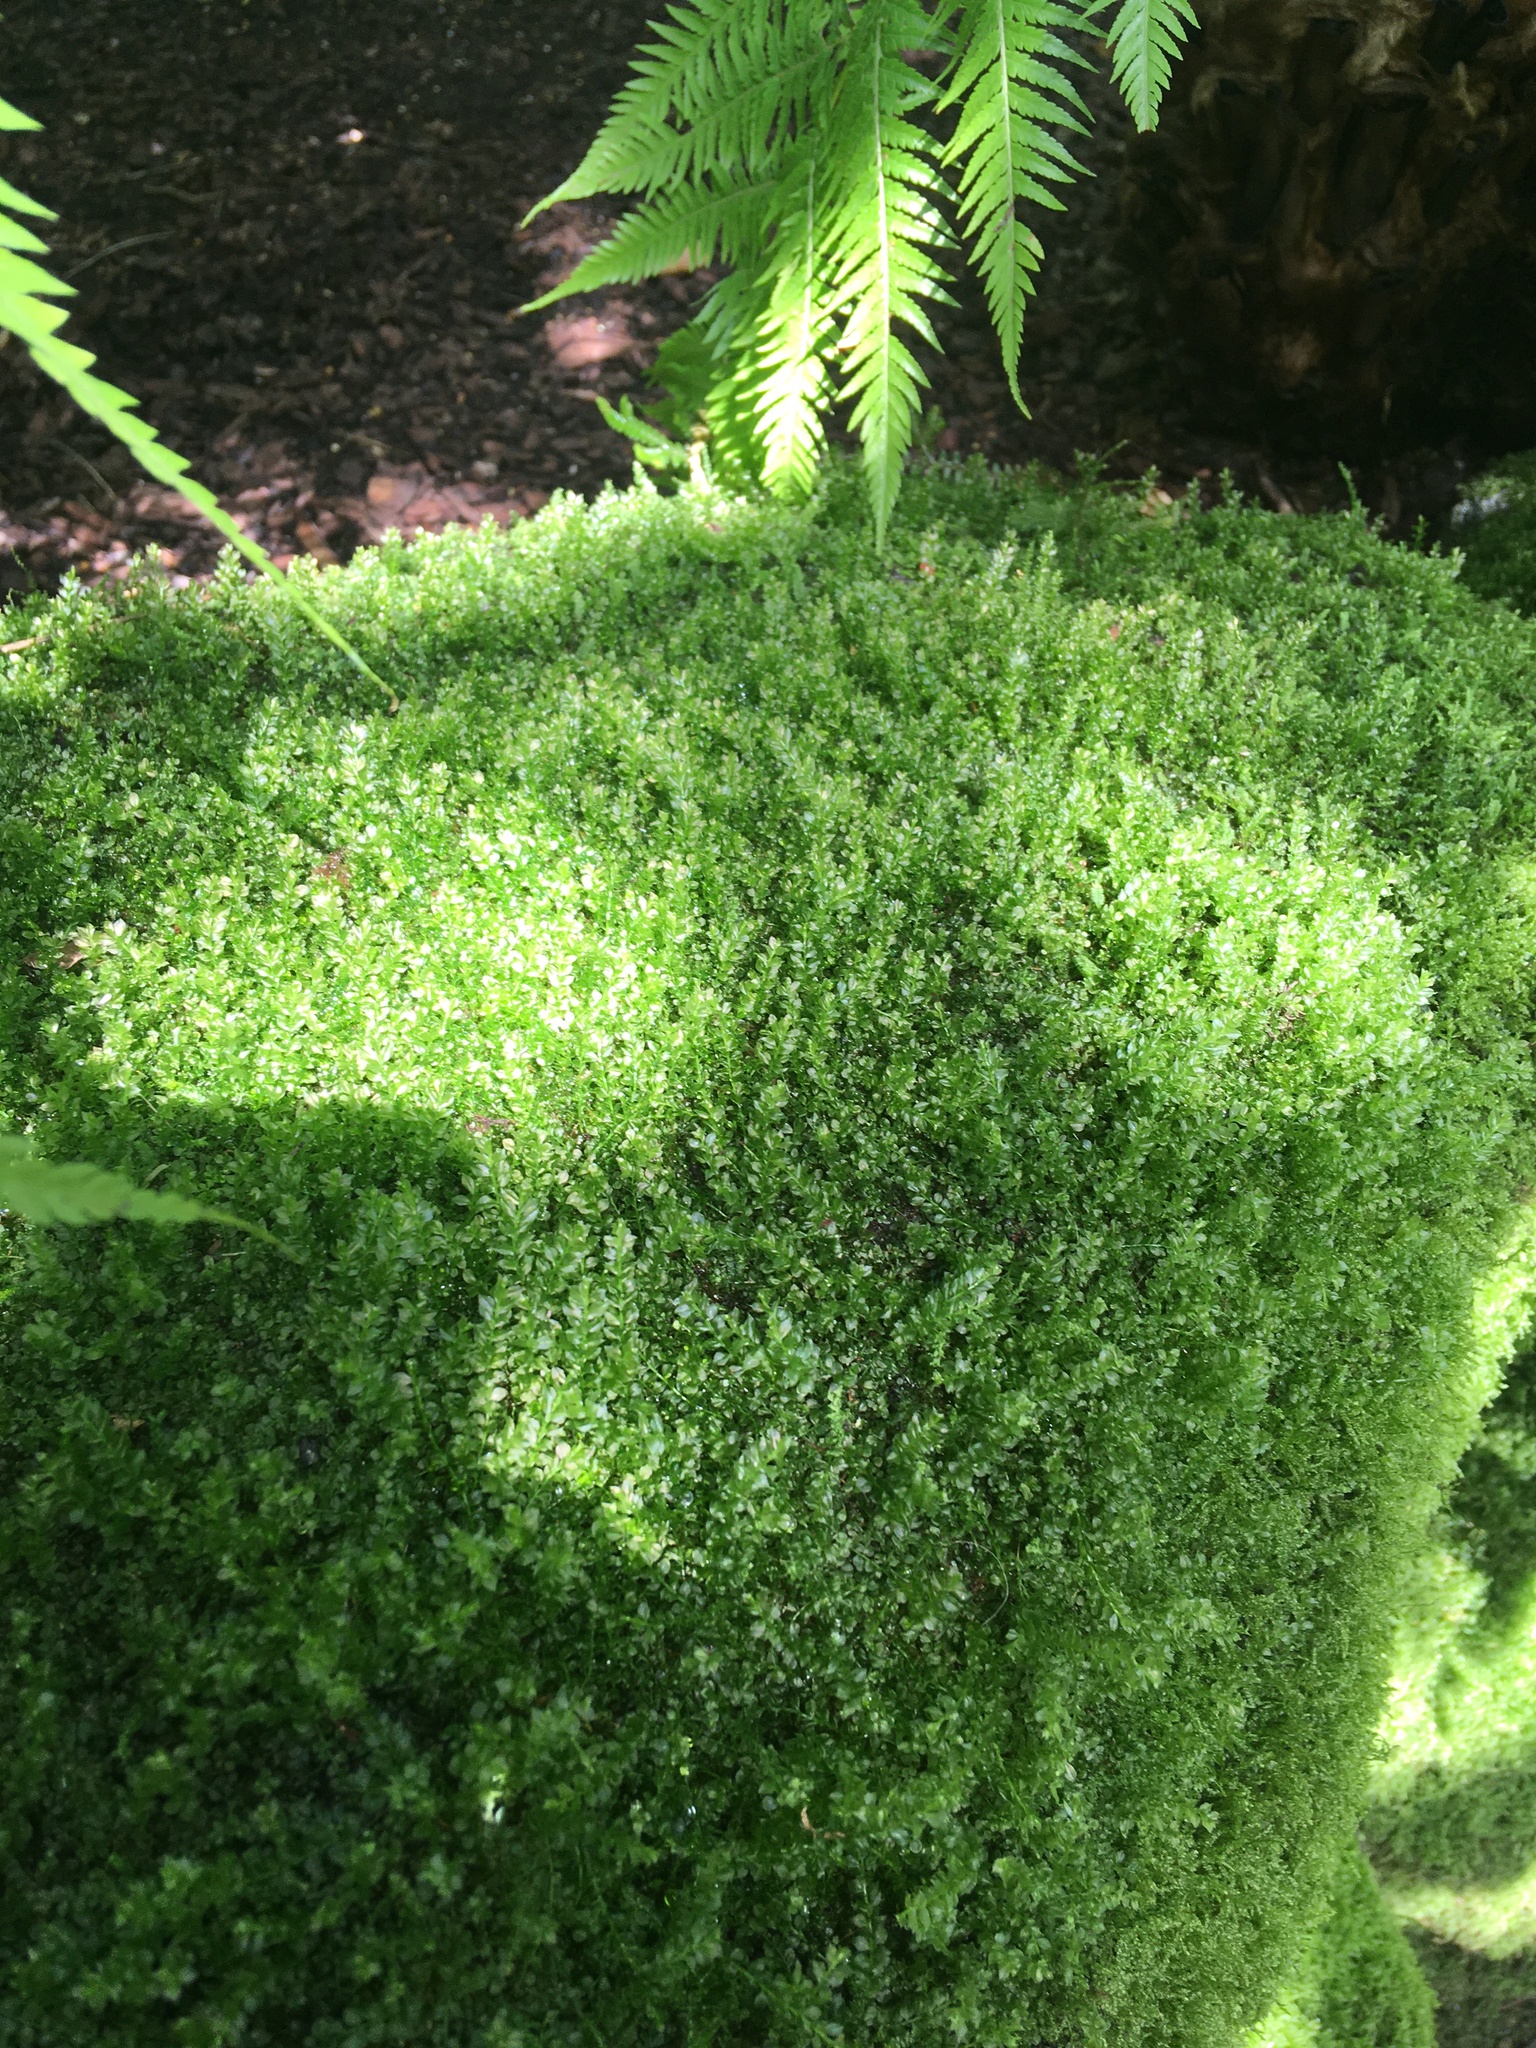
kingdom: Plantae
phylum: Bryophyta
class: Bryopsida
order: Bryales
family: Mniaceae
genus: Plagiomnium
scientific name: Plagiomnium cuspidatum
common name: Woodsy leafy moss
